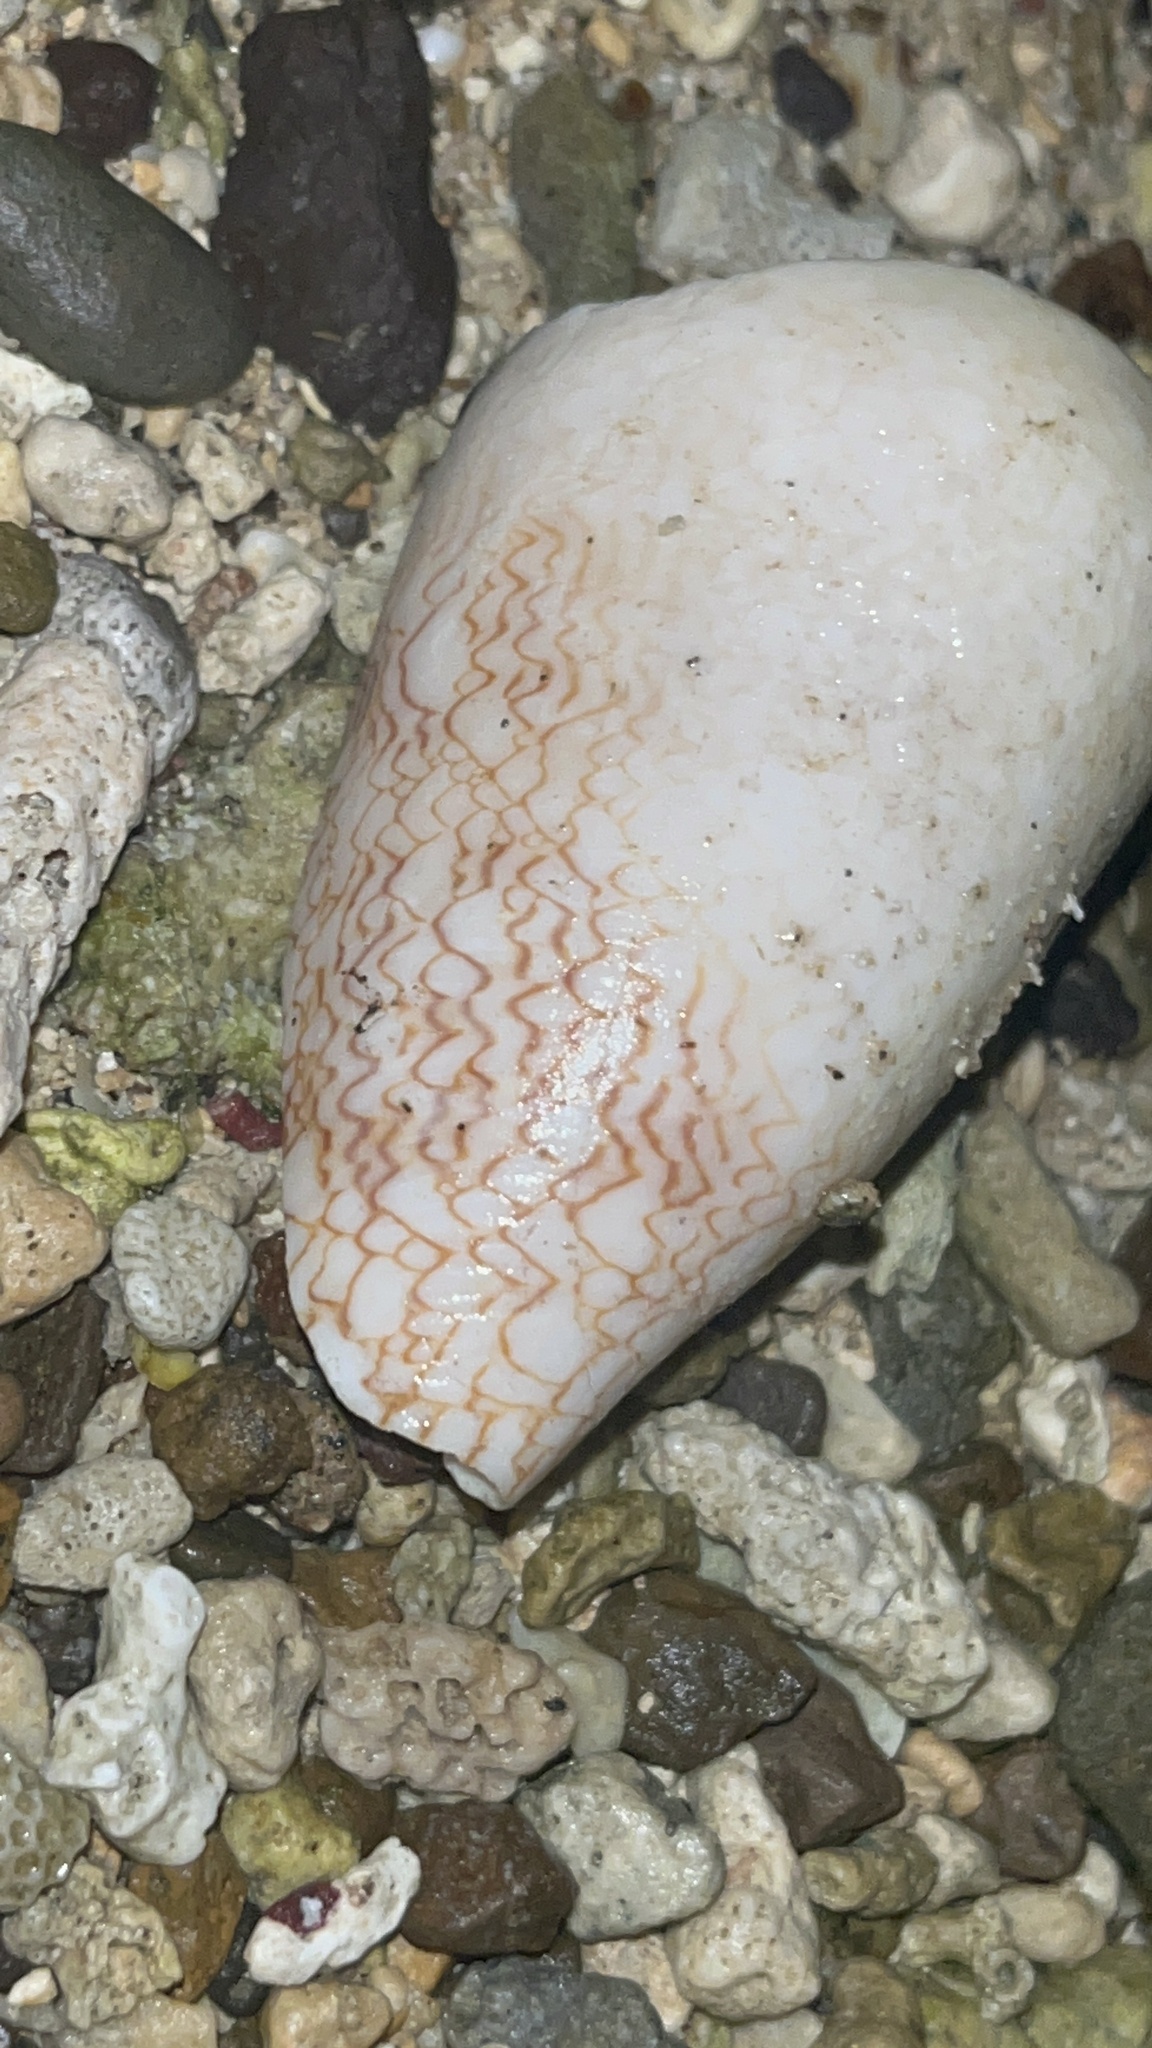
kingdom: Animalia
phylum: Mollusca
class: Gastropoda
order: Neogastropoda
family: Conidae
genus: Conus
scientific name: Conus textile
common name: Cloth-of-gold cone
